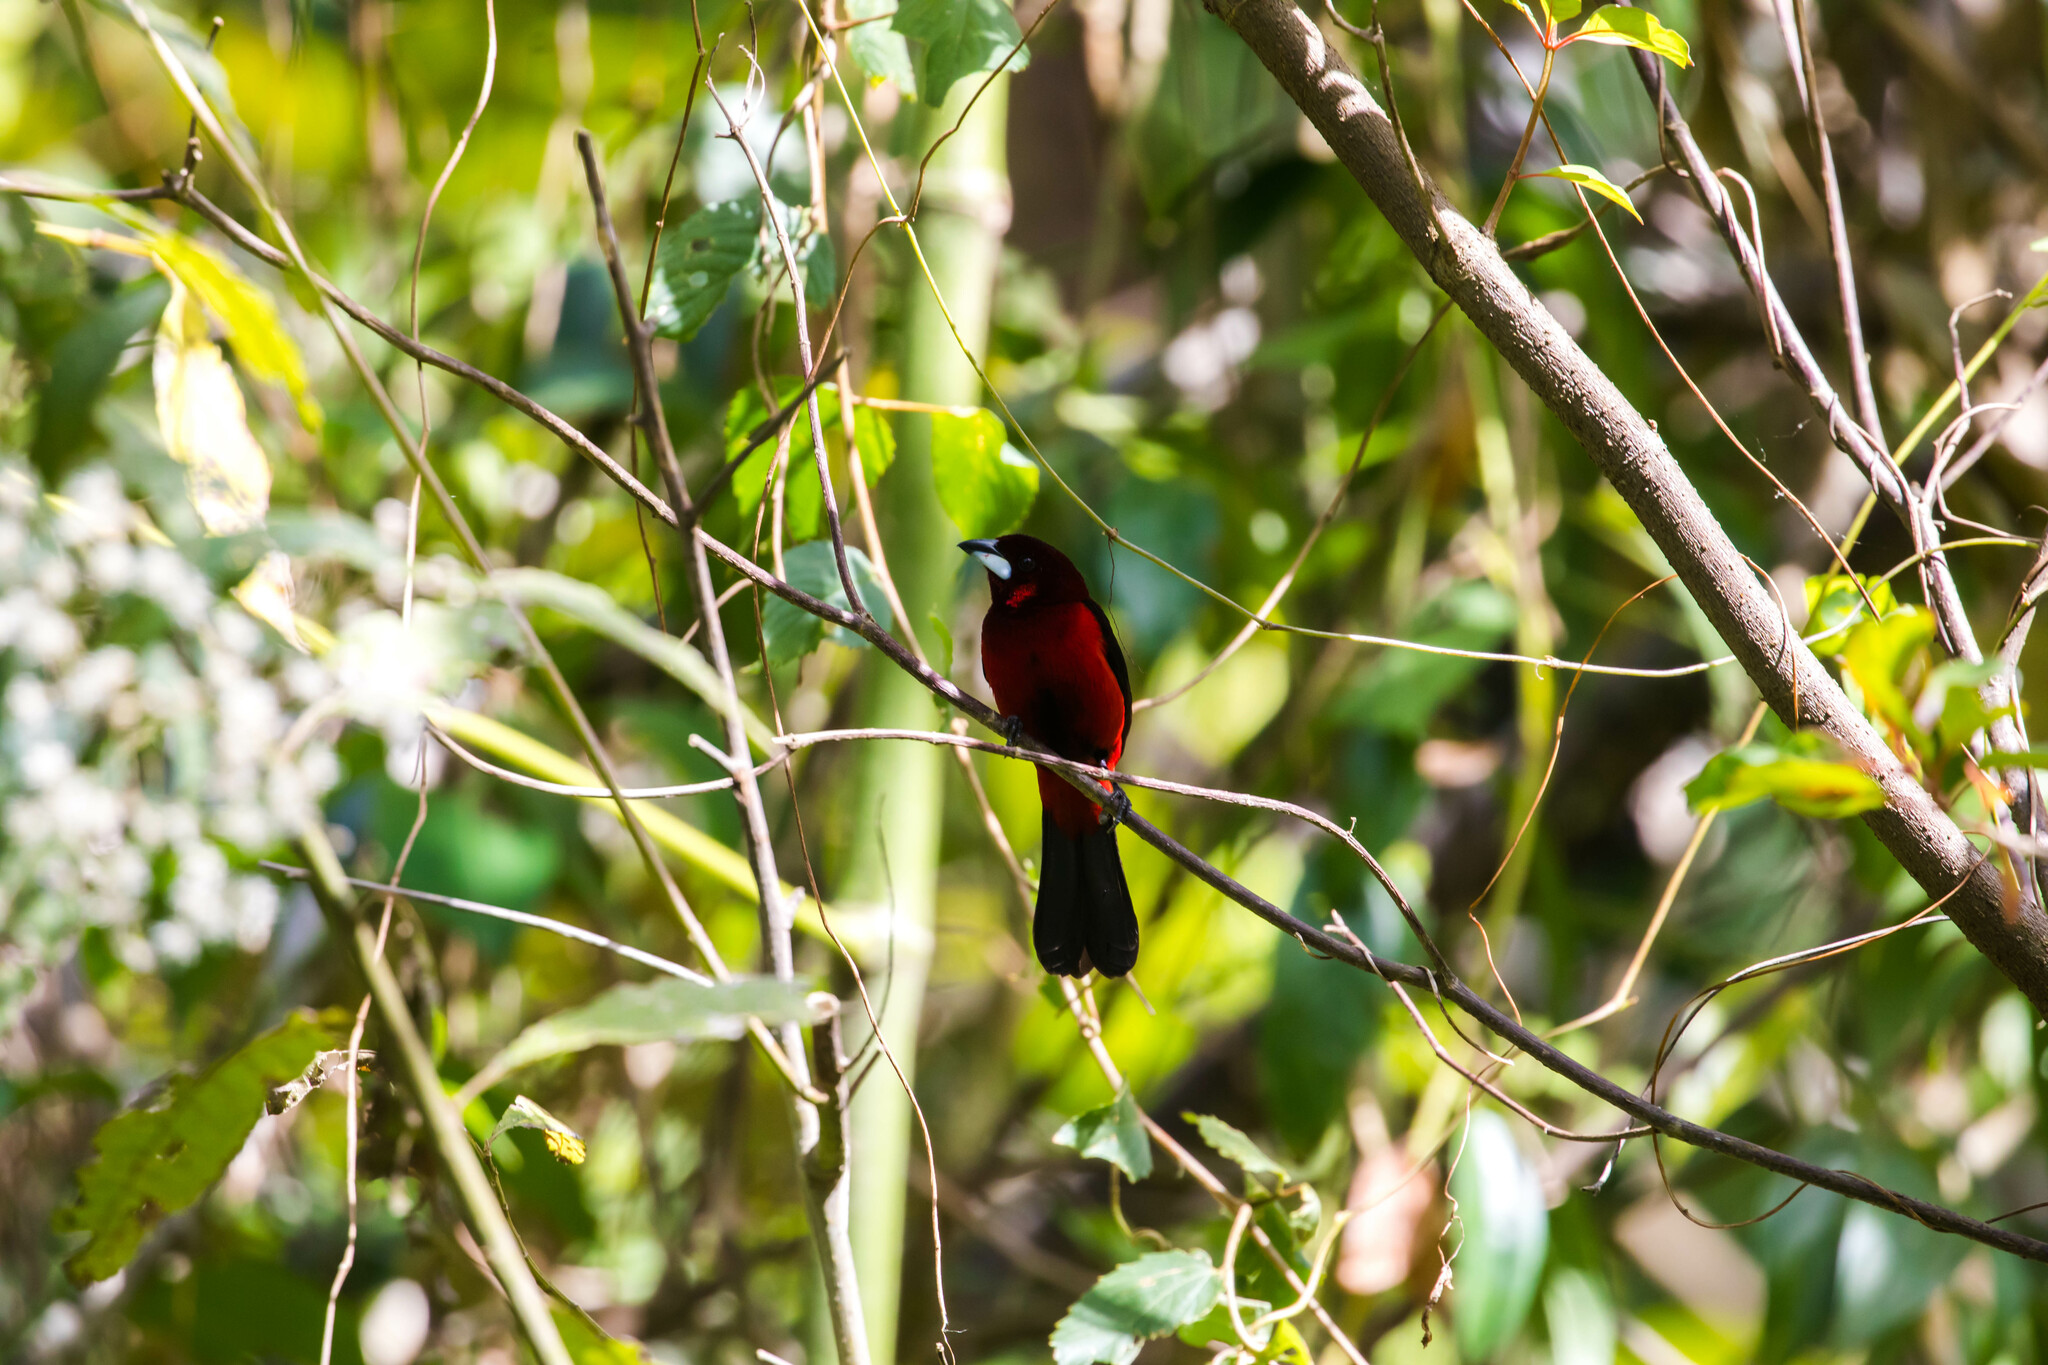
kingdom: Animalia
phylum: Chordata
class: Aves
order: Passeriformes
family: Thraupidae
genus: Ramphocelus
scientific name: Ramphocelus dimidiatus
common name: Crimson-backed tanager
